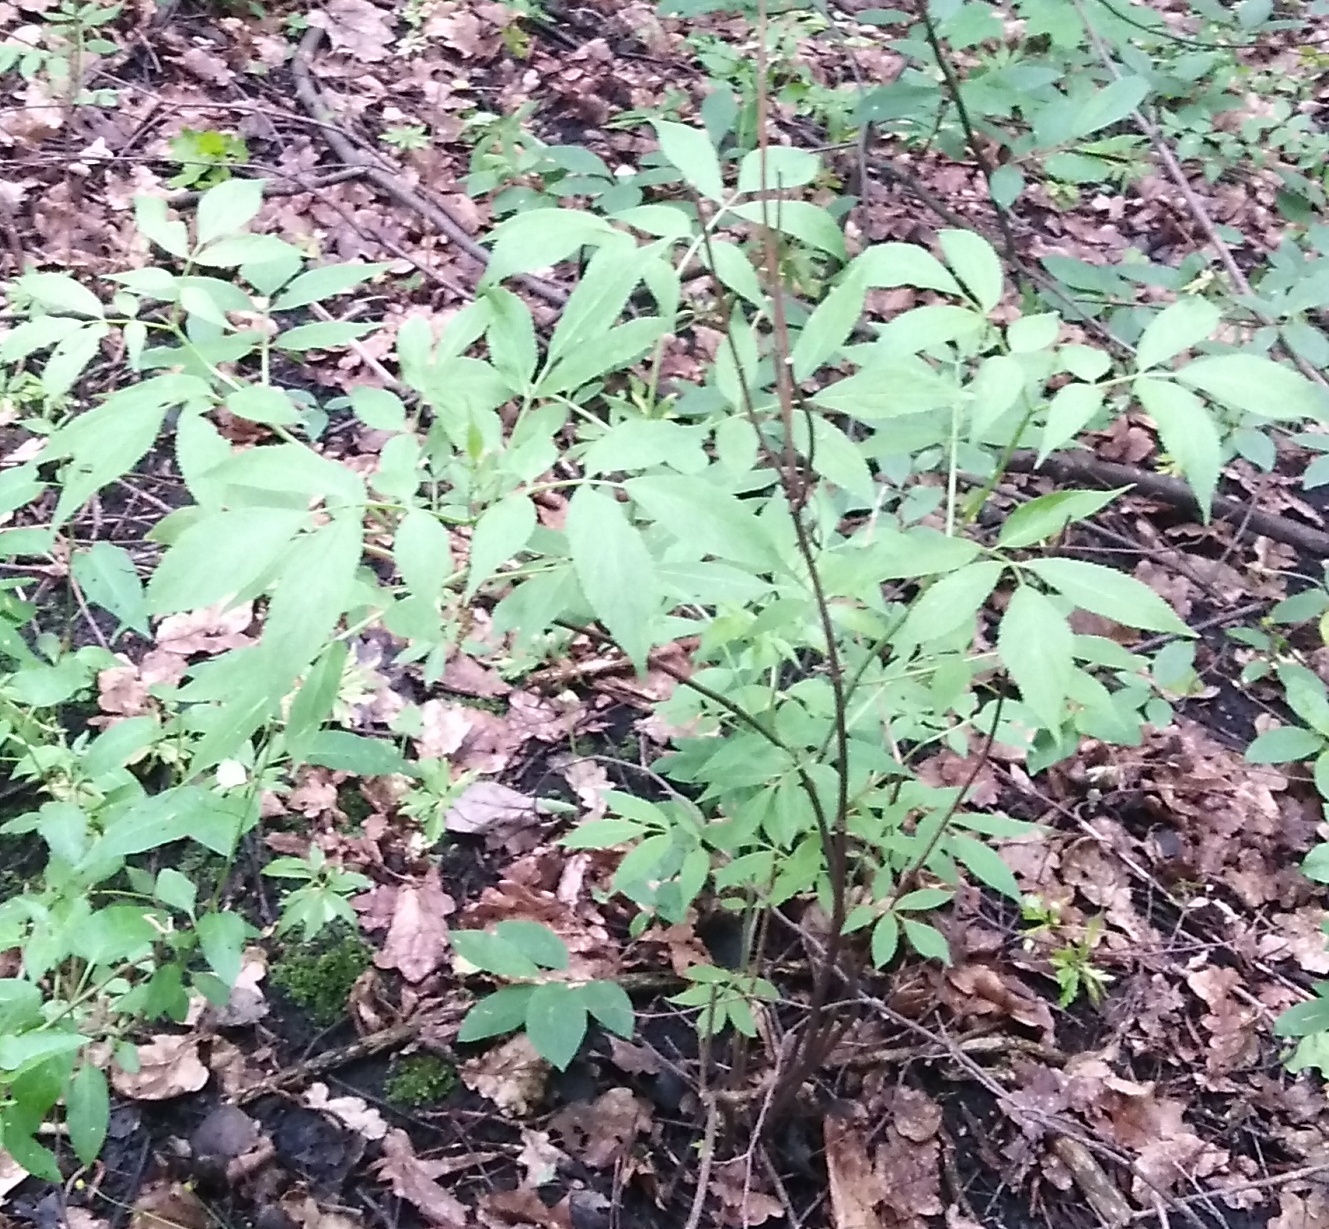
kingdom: Plantae
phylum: Tracheophyta
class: Magnoliopsida
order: Dipsacales
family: Viburnaceae
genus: Sambucus
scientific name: Sambucus racemosa
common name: Red-berried elder
